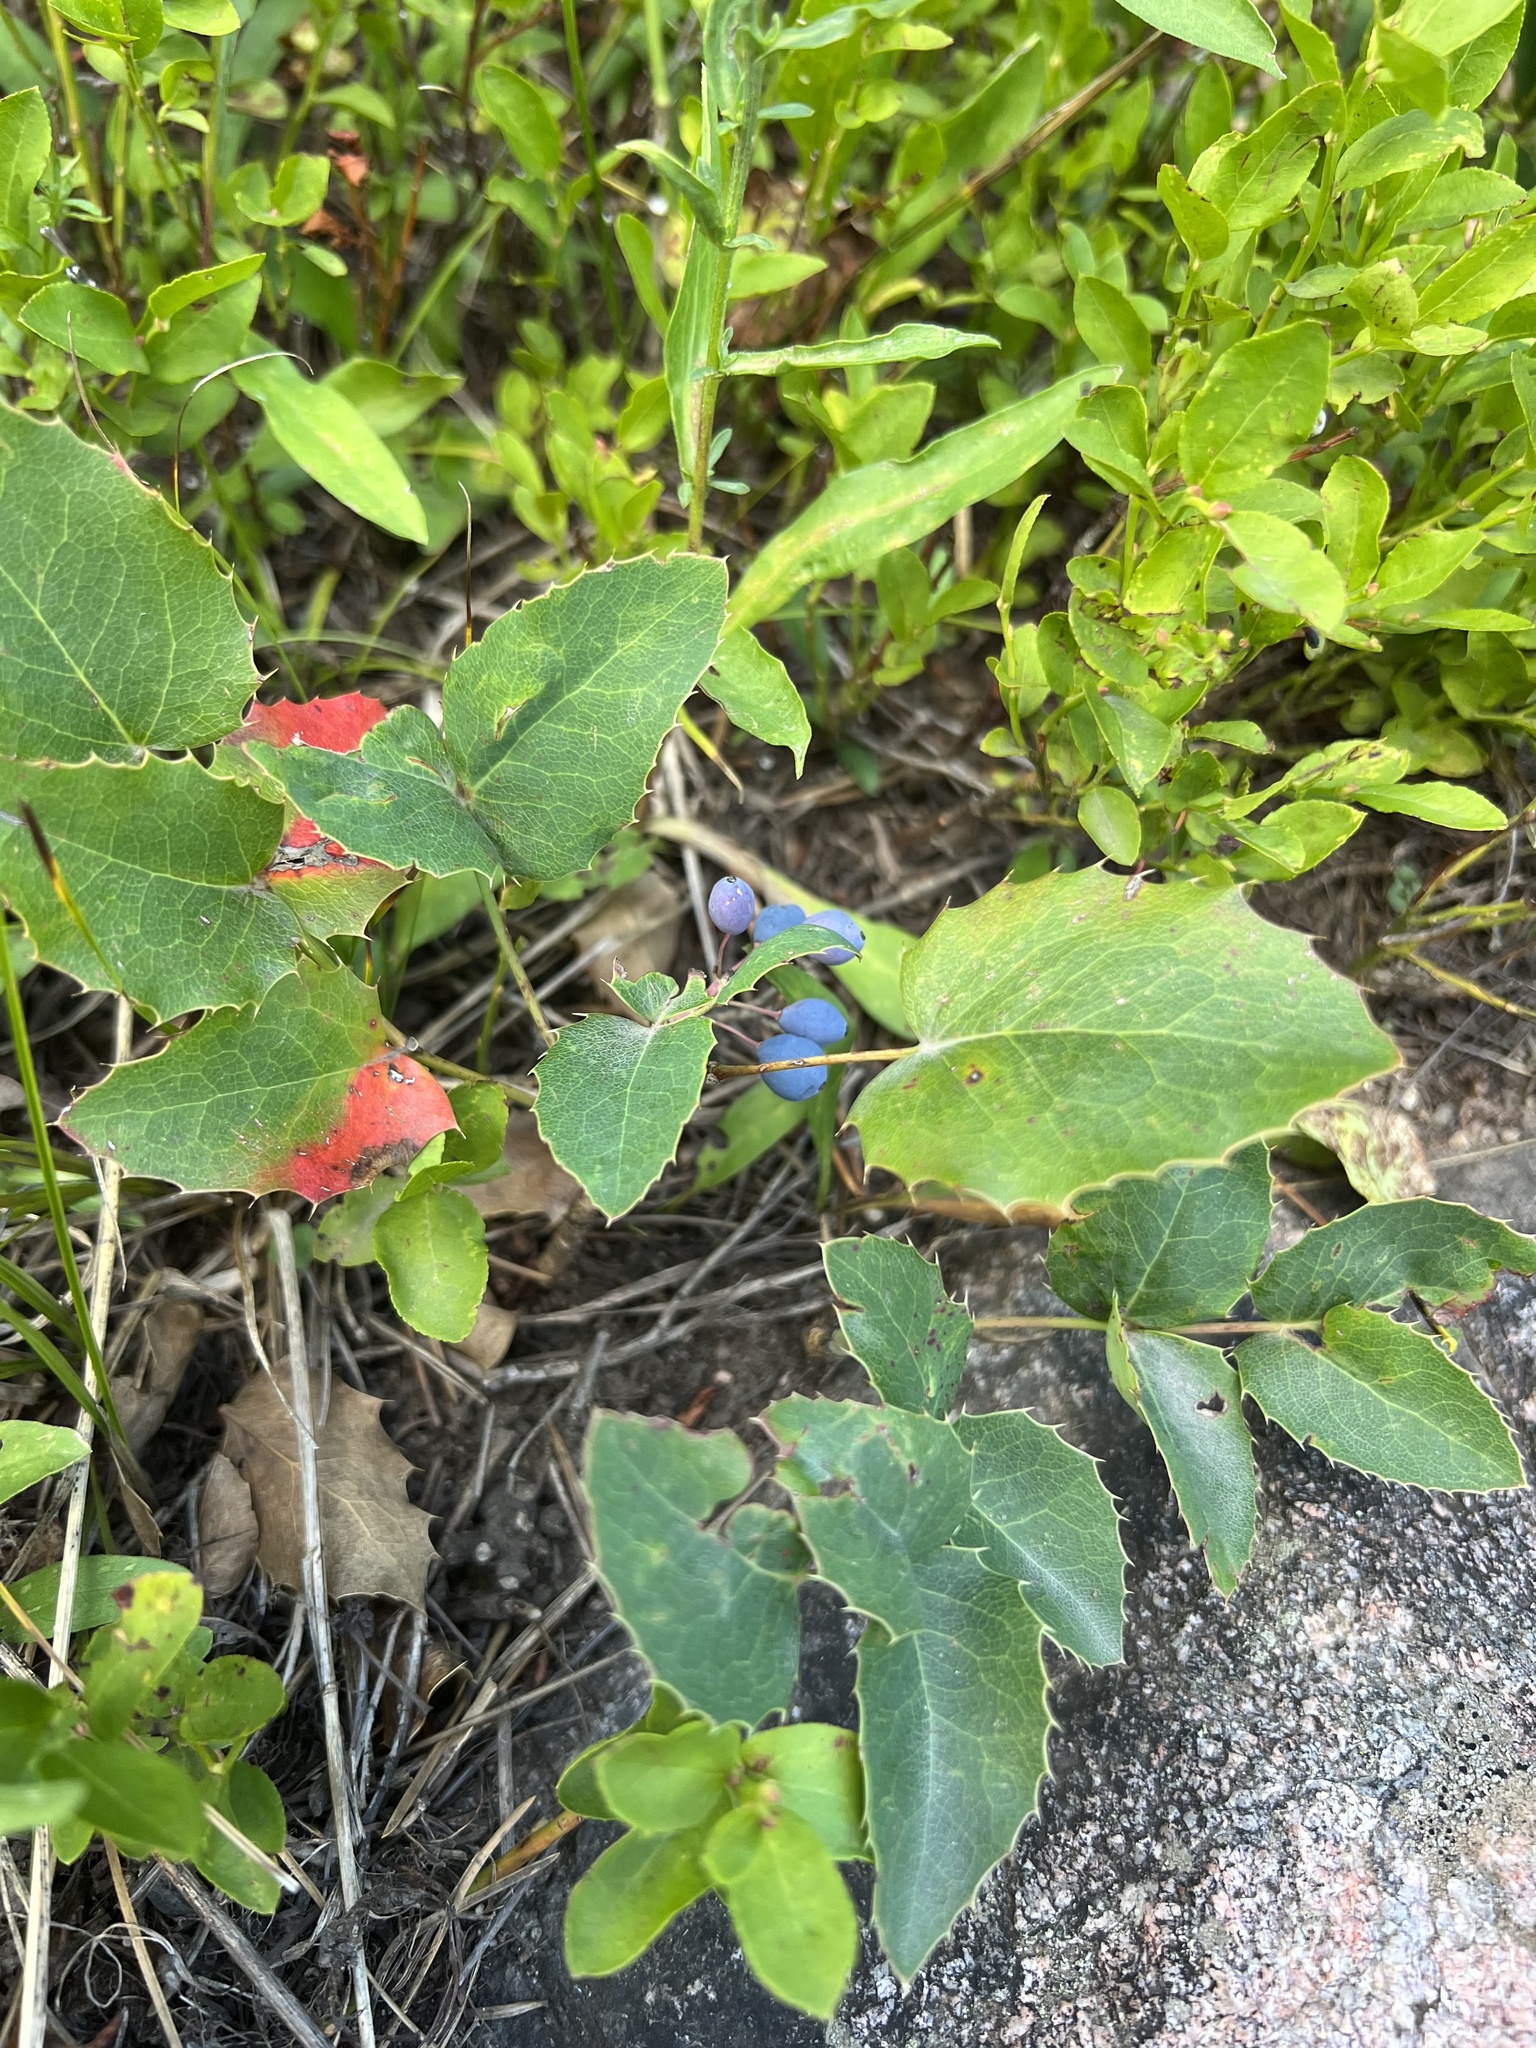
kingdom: Plantae
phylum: Tracheophyta
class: Magnoliopsida
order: Ranunculales
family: Berberidaceae
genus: Mahonia
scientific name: Mahonia repens
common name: Creeping oregon-grape
